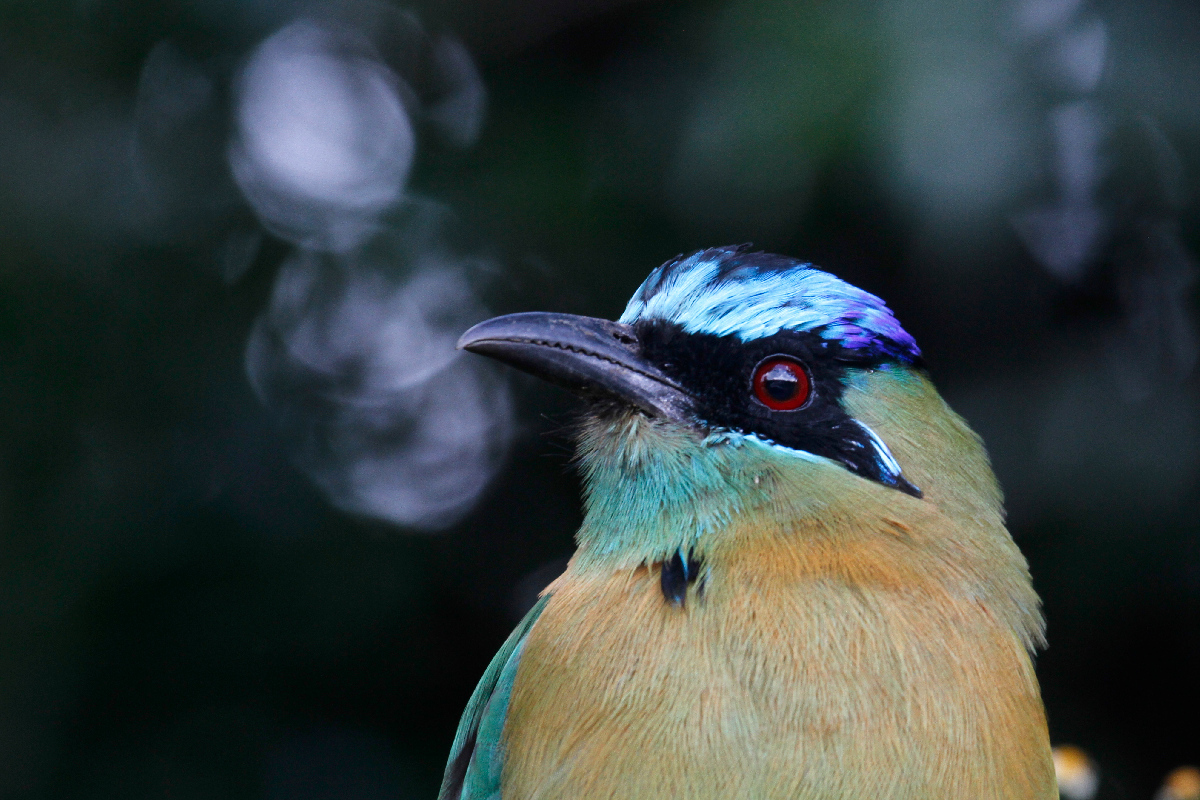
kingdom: Animalia
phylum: Chordata
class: Aves
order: Coraciiformes
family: Momotidae
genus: Momotus
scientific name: Momotus lessonii
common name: Lesson's motmot
